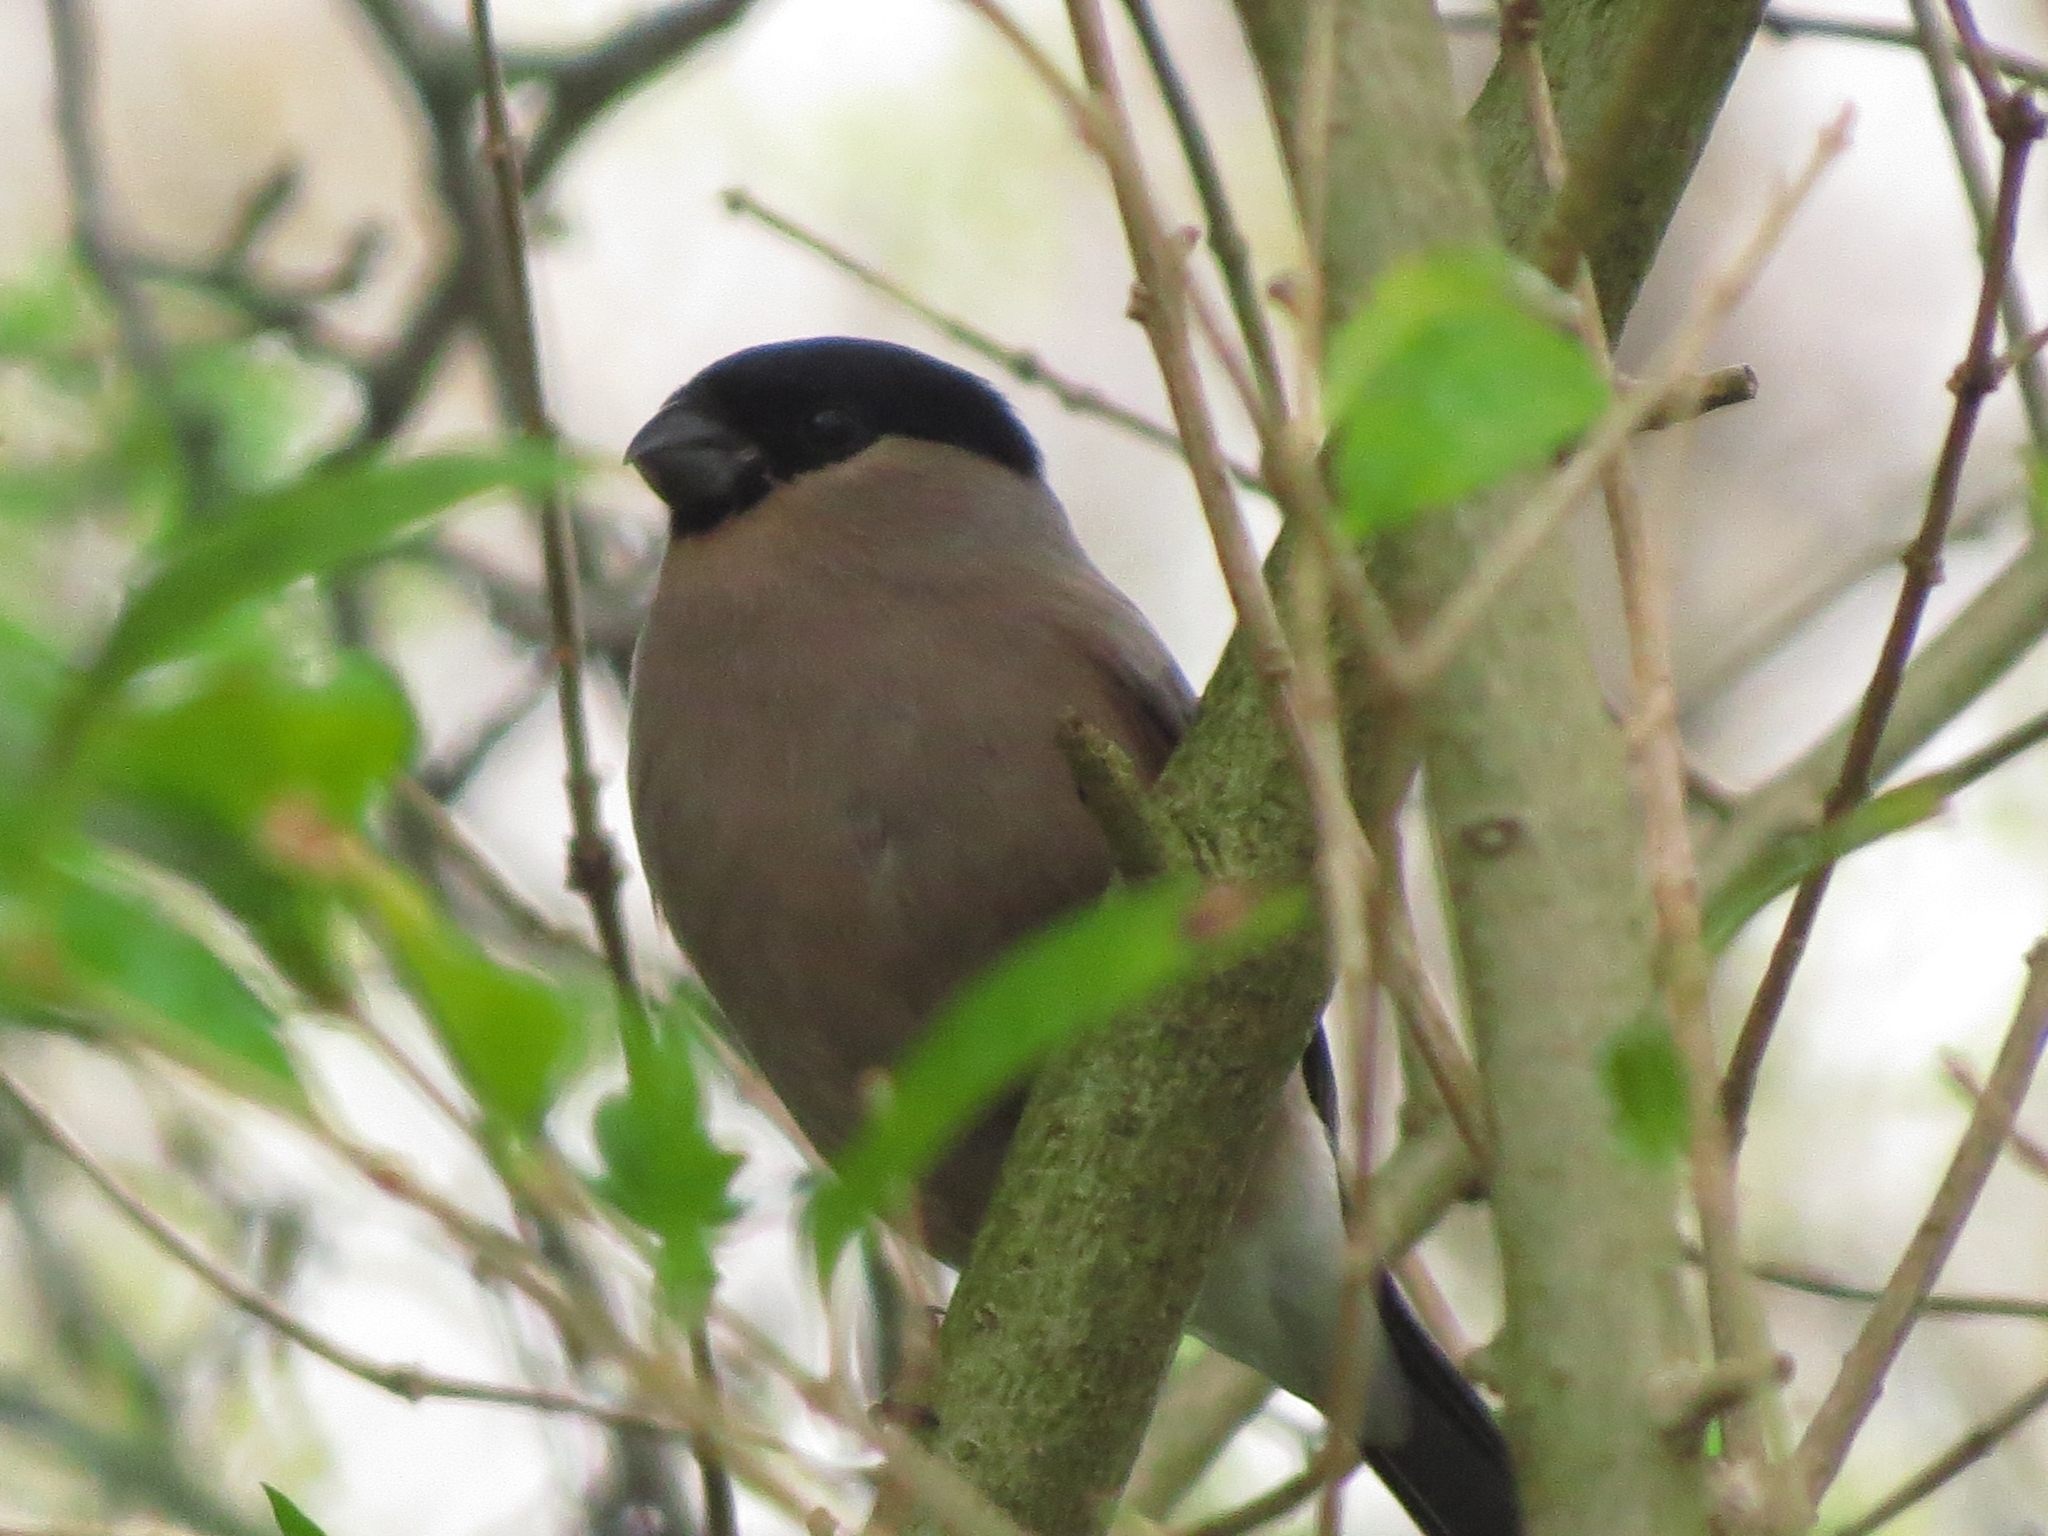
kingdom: Animalia
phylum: Chordata
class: Aves
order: Passeriformes
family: Fringillidae
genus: Pyrrhula
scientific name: Pyrrhula pyrrhula
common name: Eurasian bullfinch
